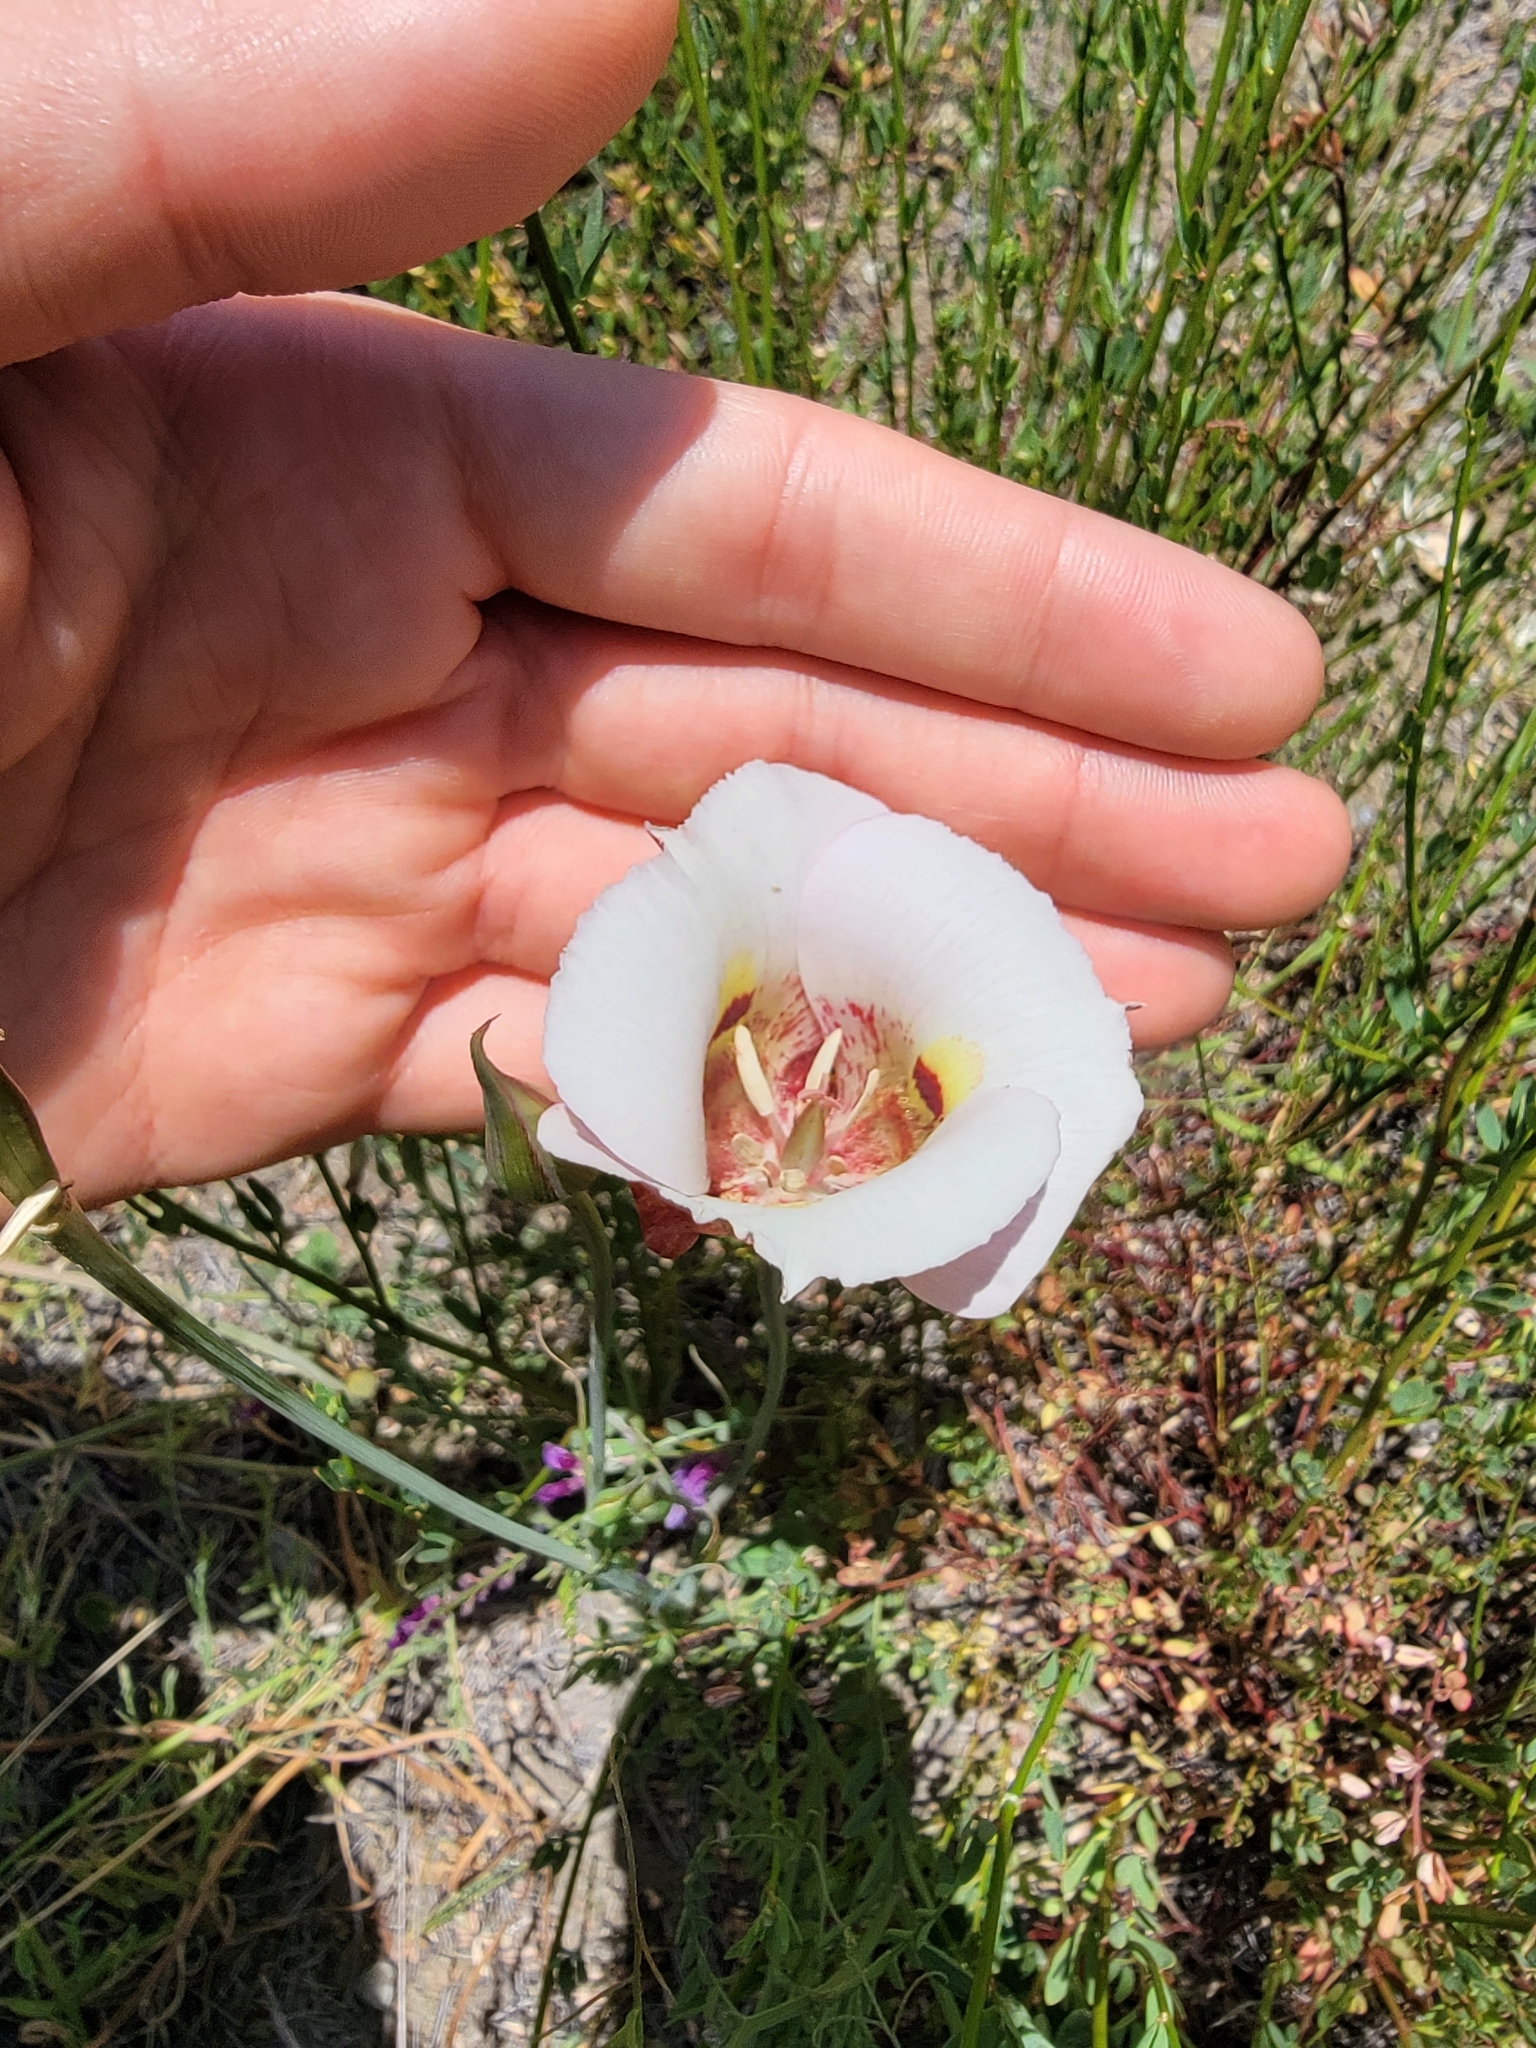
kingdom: Plantae
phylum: Tracheophyta
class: Liliopsida
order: Liliales
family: Liliaceae
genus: Calochortus
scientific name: Calochortus argillosus
